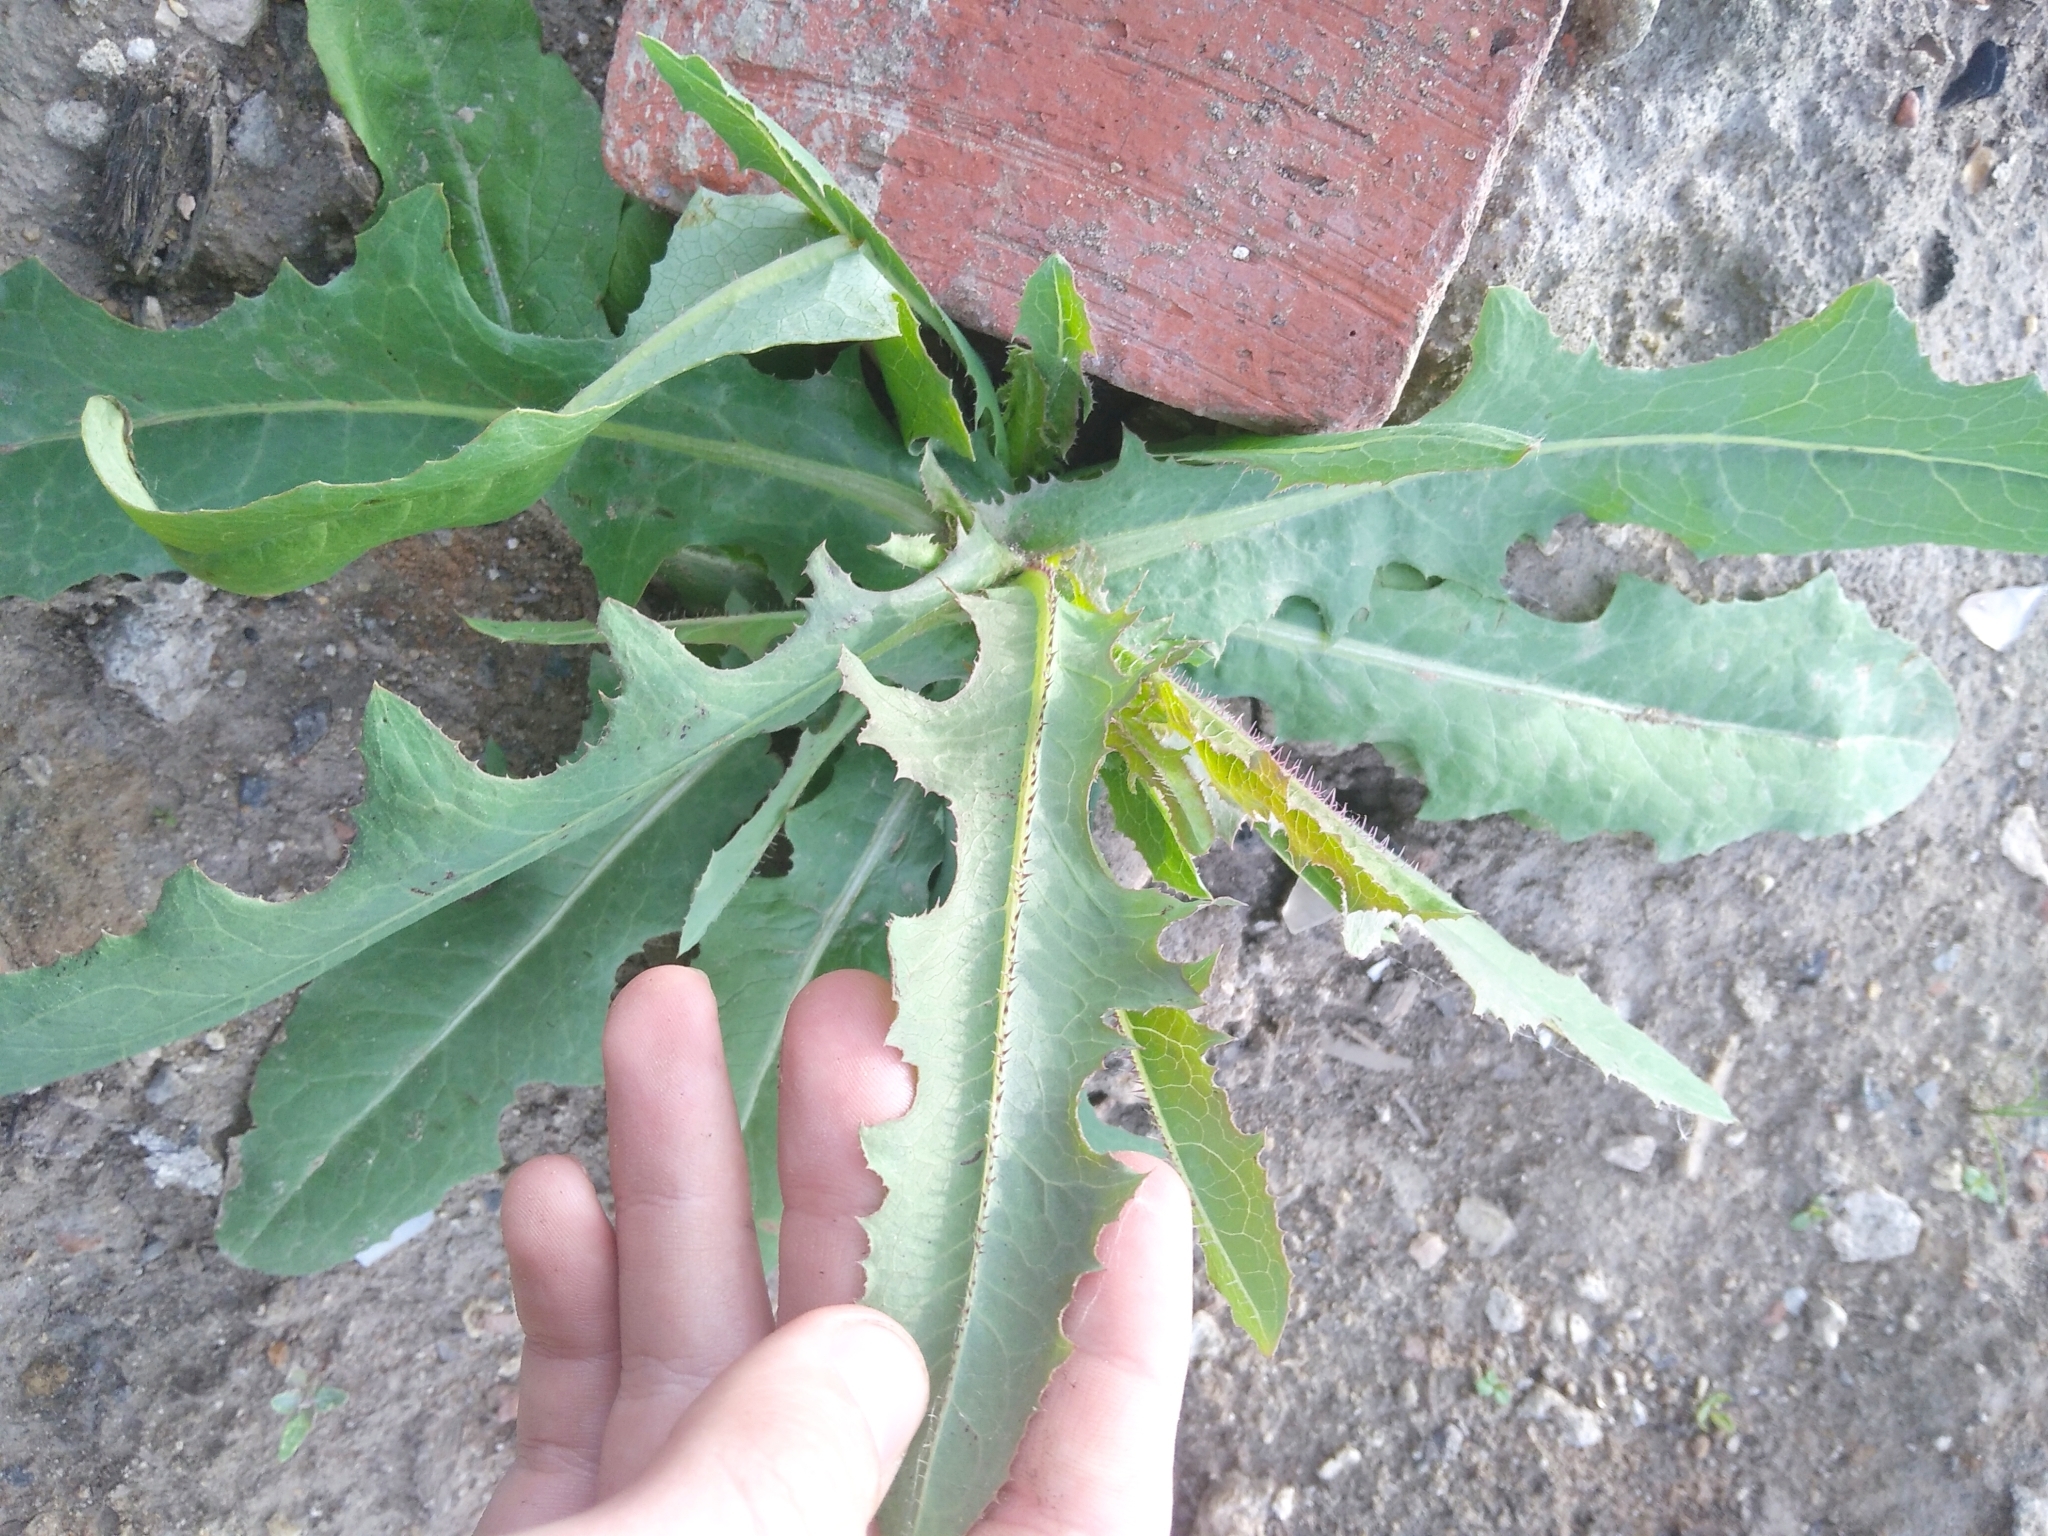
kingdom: Plantae
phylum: Tracheophyta
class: Magnoliopsida
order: Asterales
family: Asteraceae
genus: Lactuca
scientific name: Lactuca serriola
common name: Prickly lettuce
